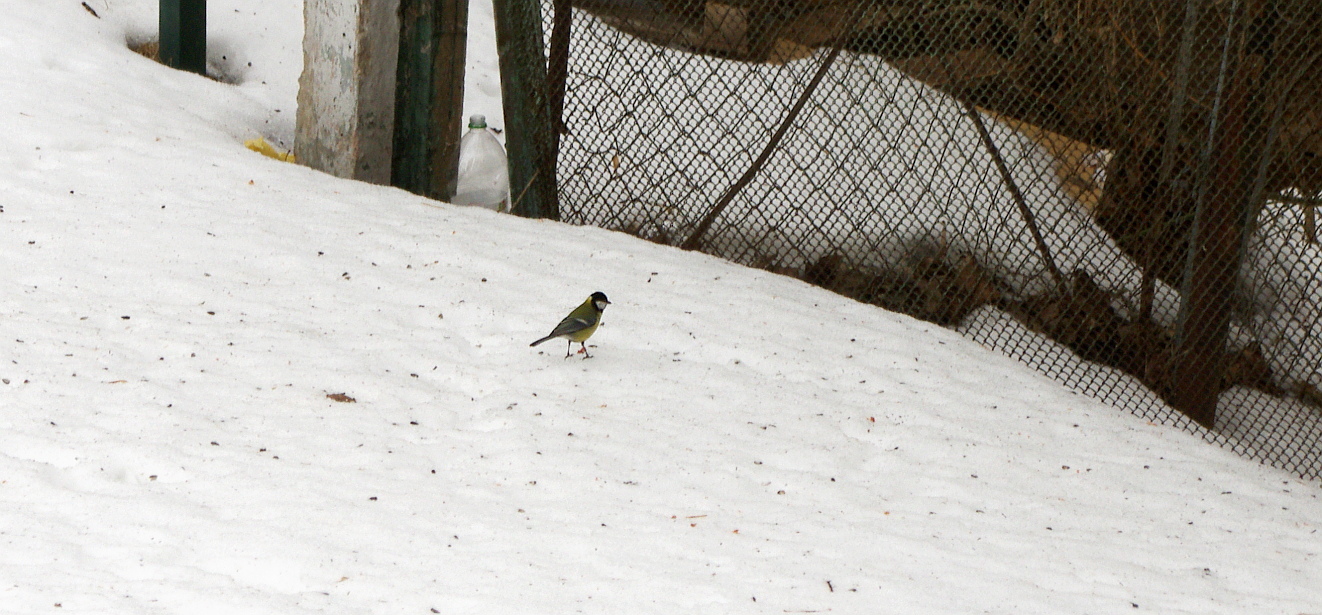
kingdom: Animalia
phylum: Chordata
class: Aves
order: Passeriformes
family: Paridae
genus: Parus
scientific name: Parus major
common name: Great tit
